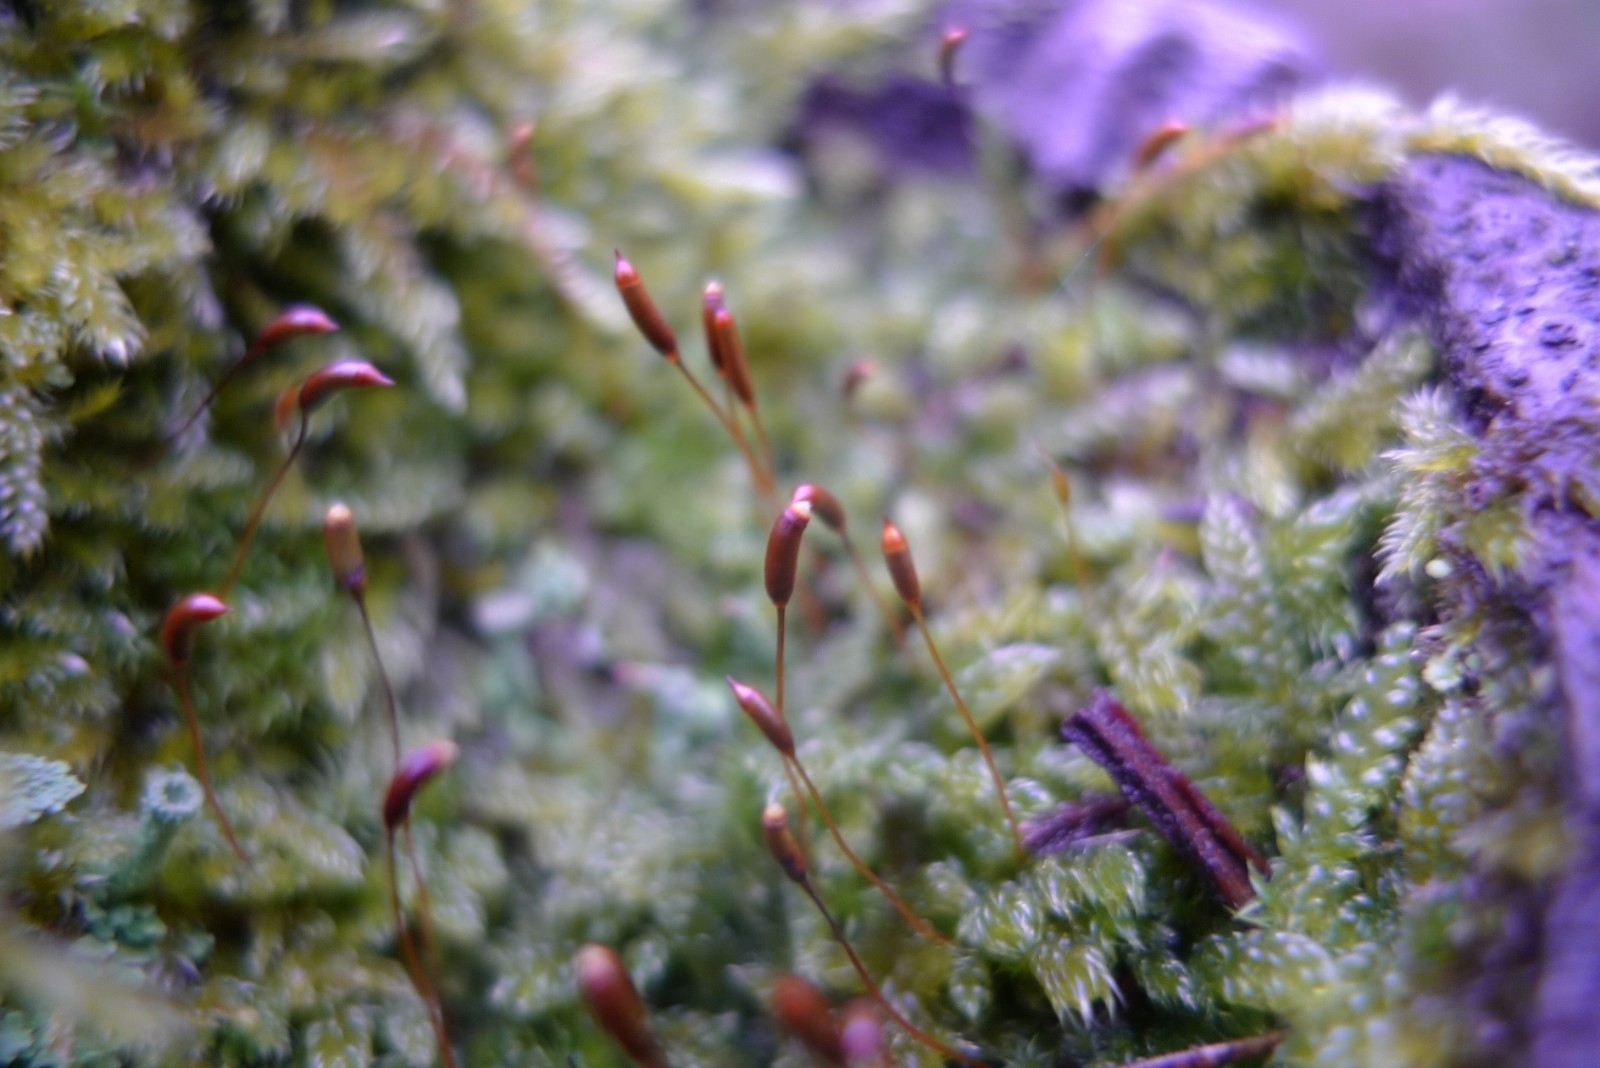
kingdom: Plantae
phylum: Bryophyta
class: Bryopsida
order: Hypnales
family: Hypnaceae
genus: Hypnum
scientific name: Hypnum cupressiforme
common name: Cypress-leaved plait-moss
